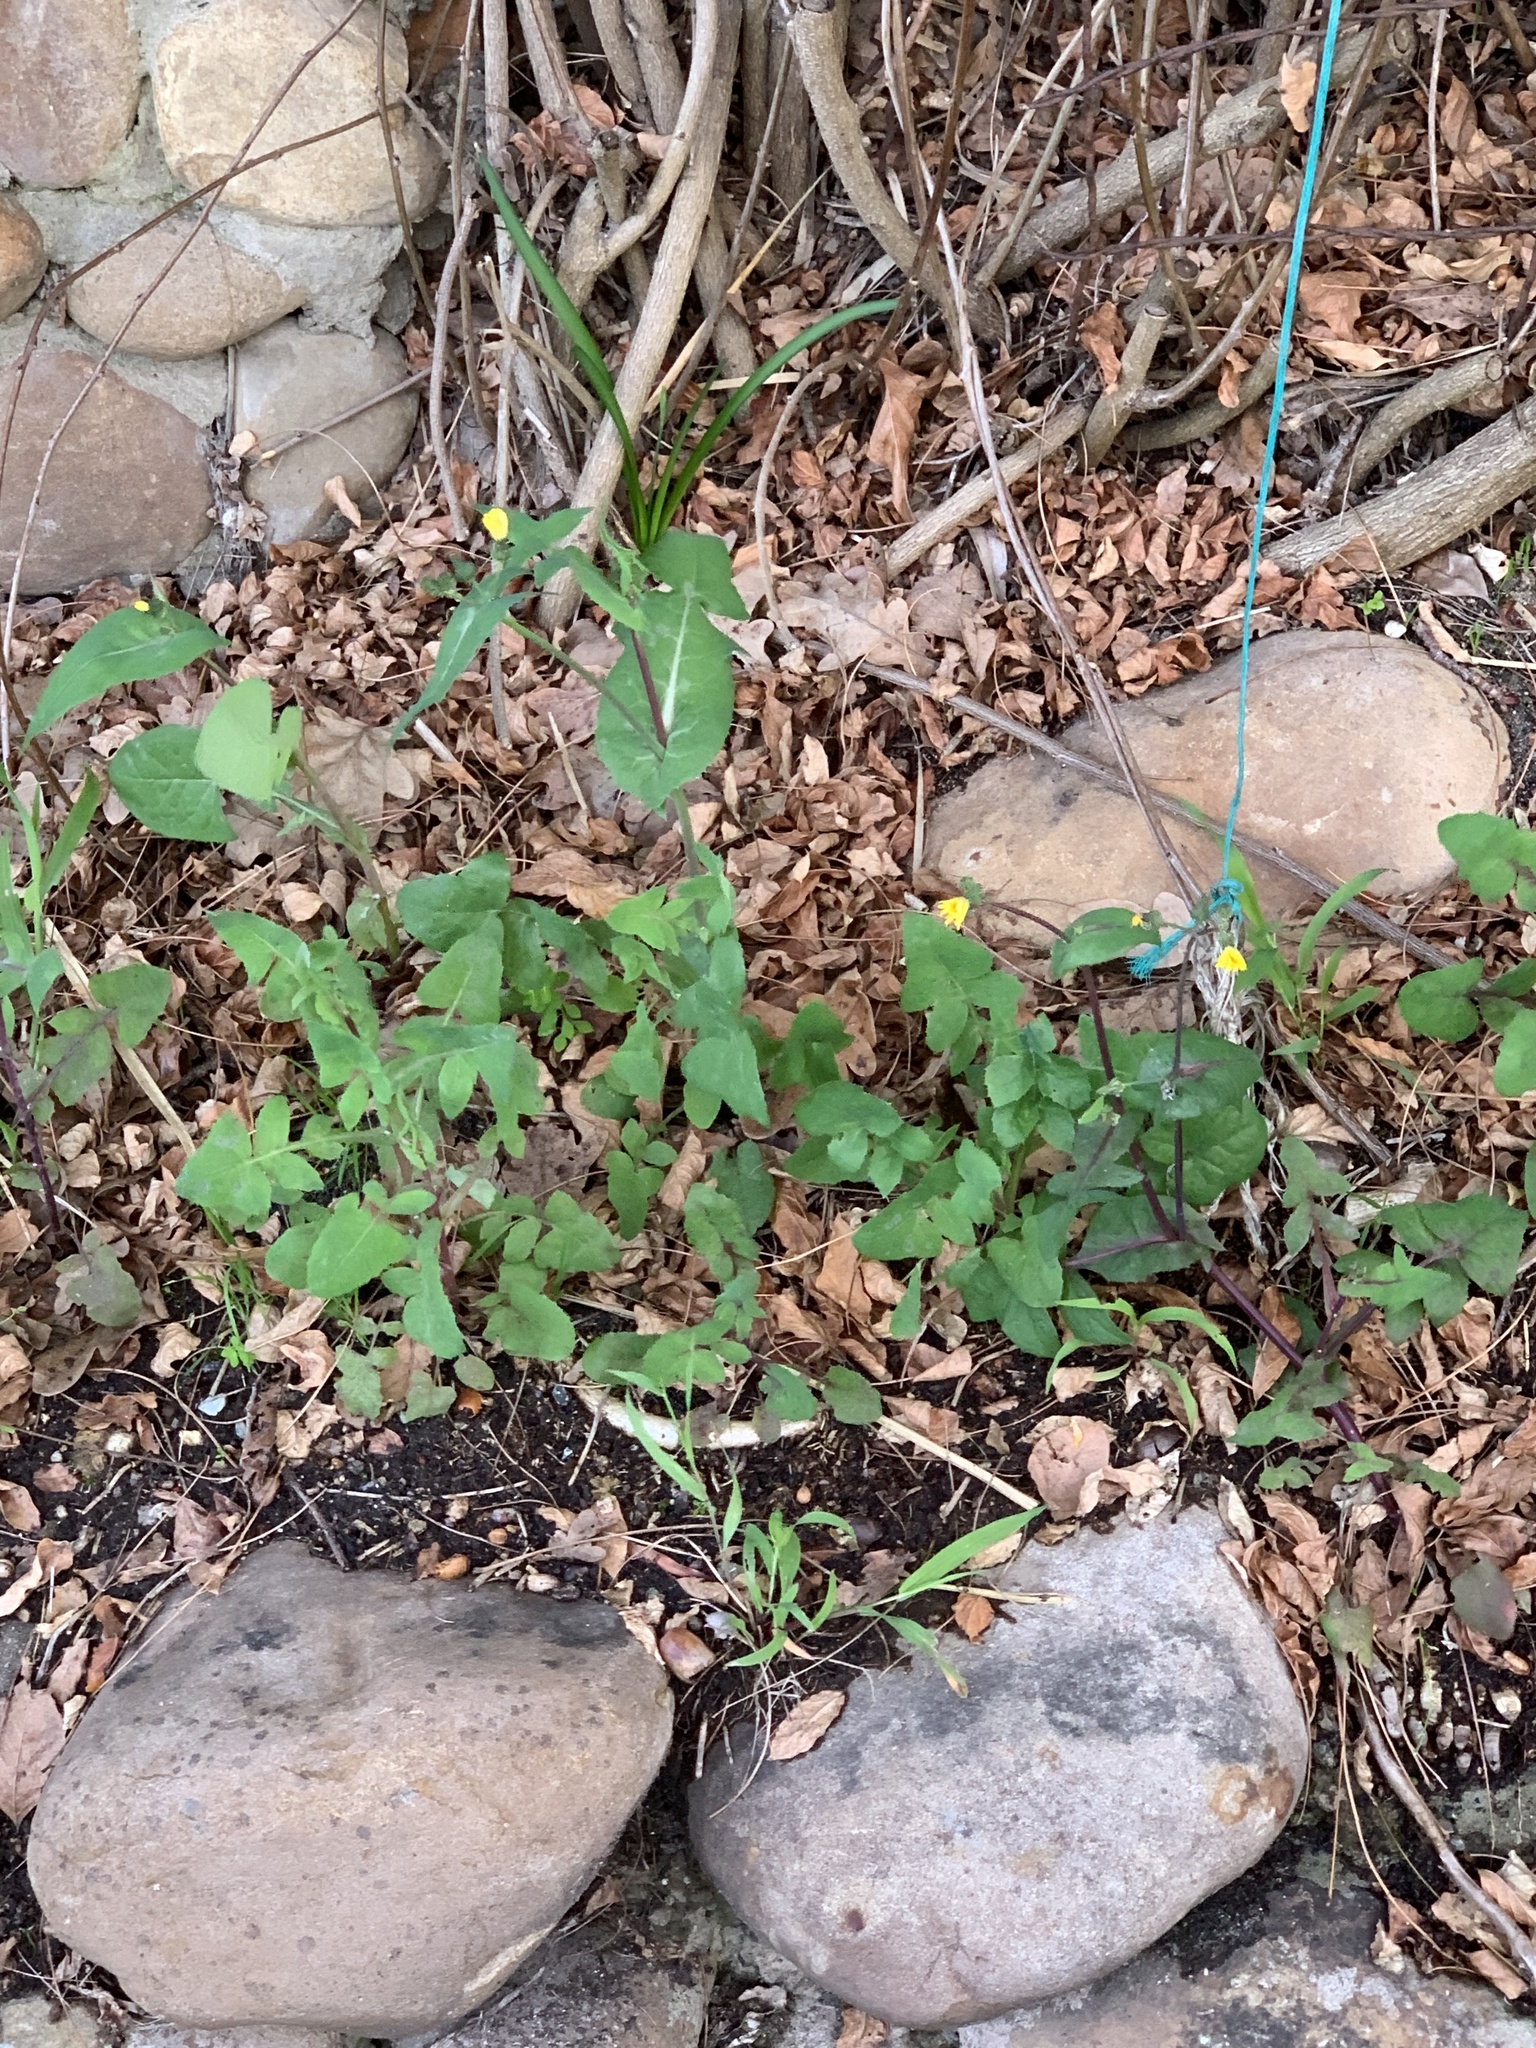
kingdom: Plantae
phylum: Tracheophyta
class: Magnoliopsida
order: Asterales
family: Asteraceae
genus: Sonchus
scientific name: Sonchus oleraceus
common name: Common sowthistle
